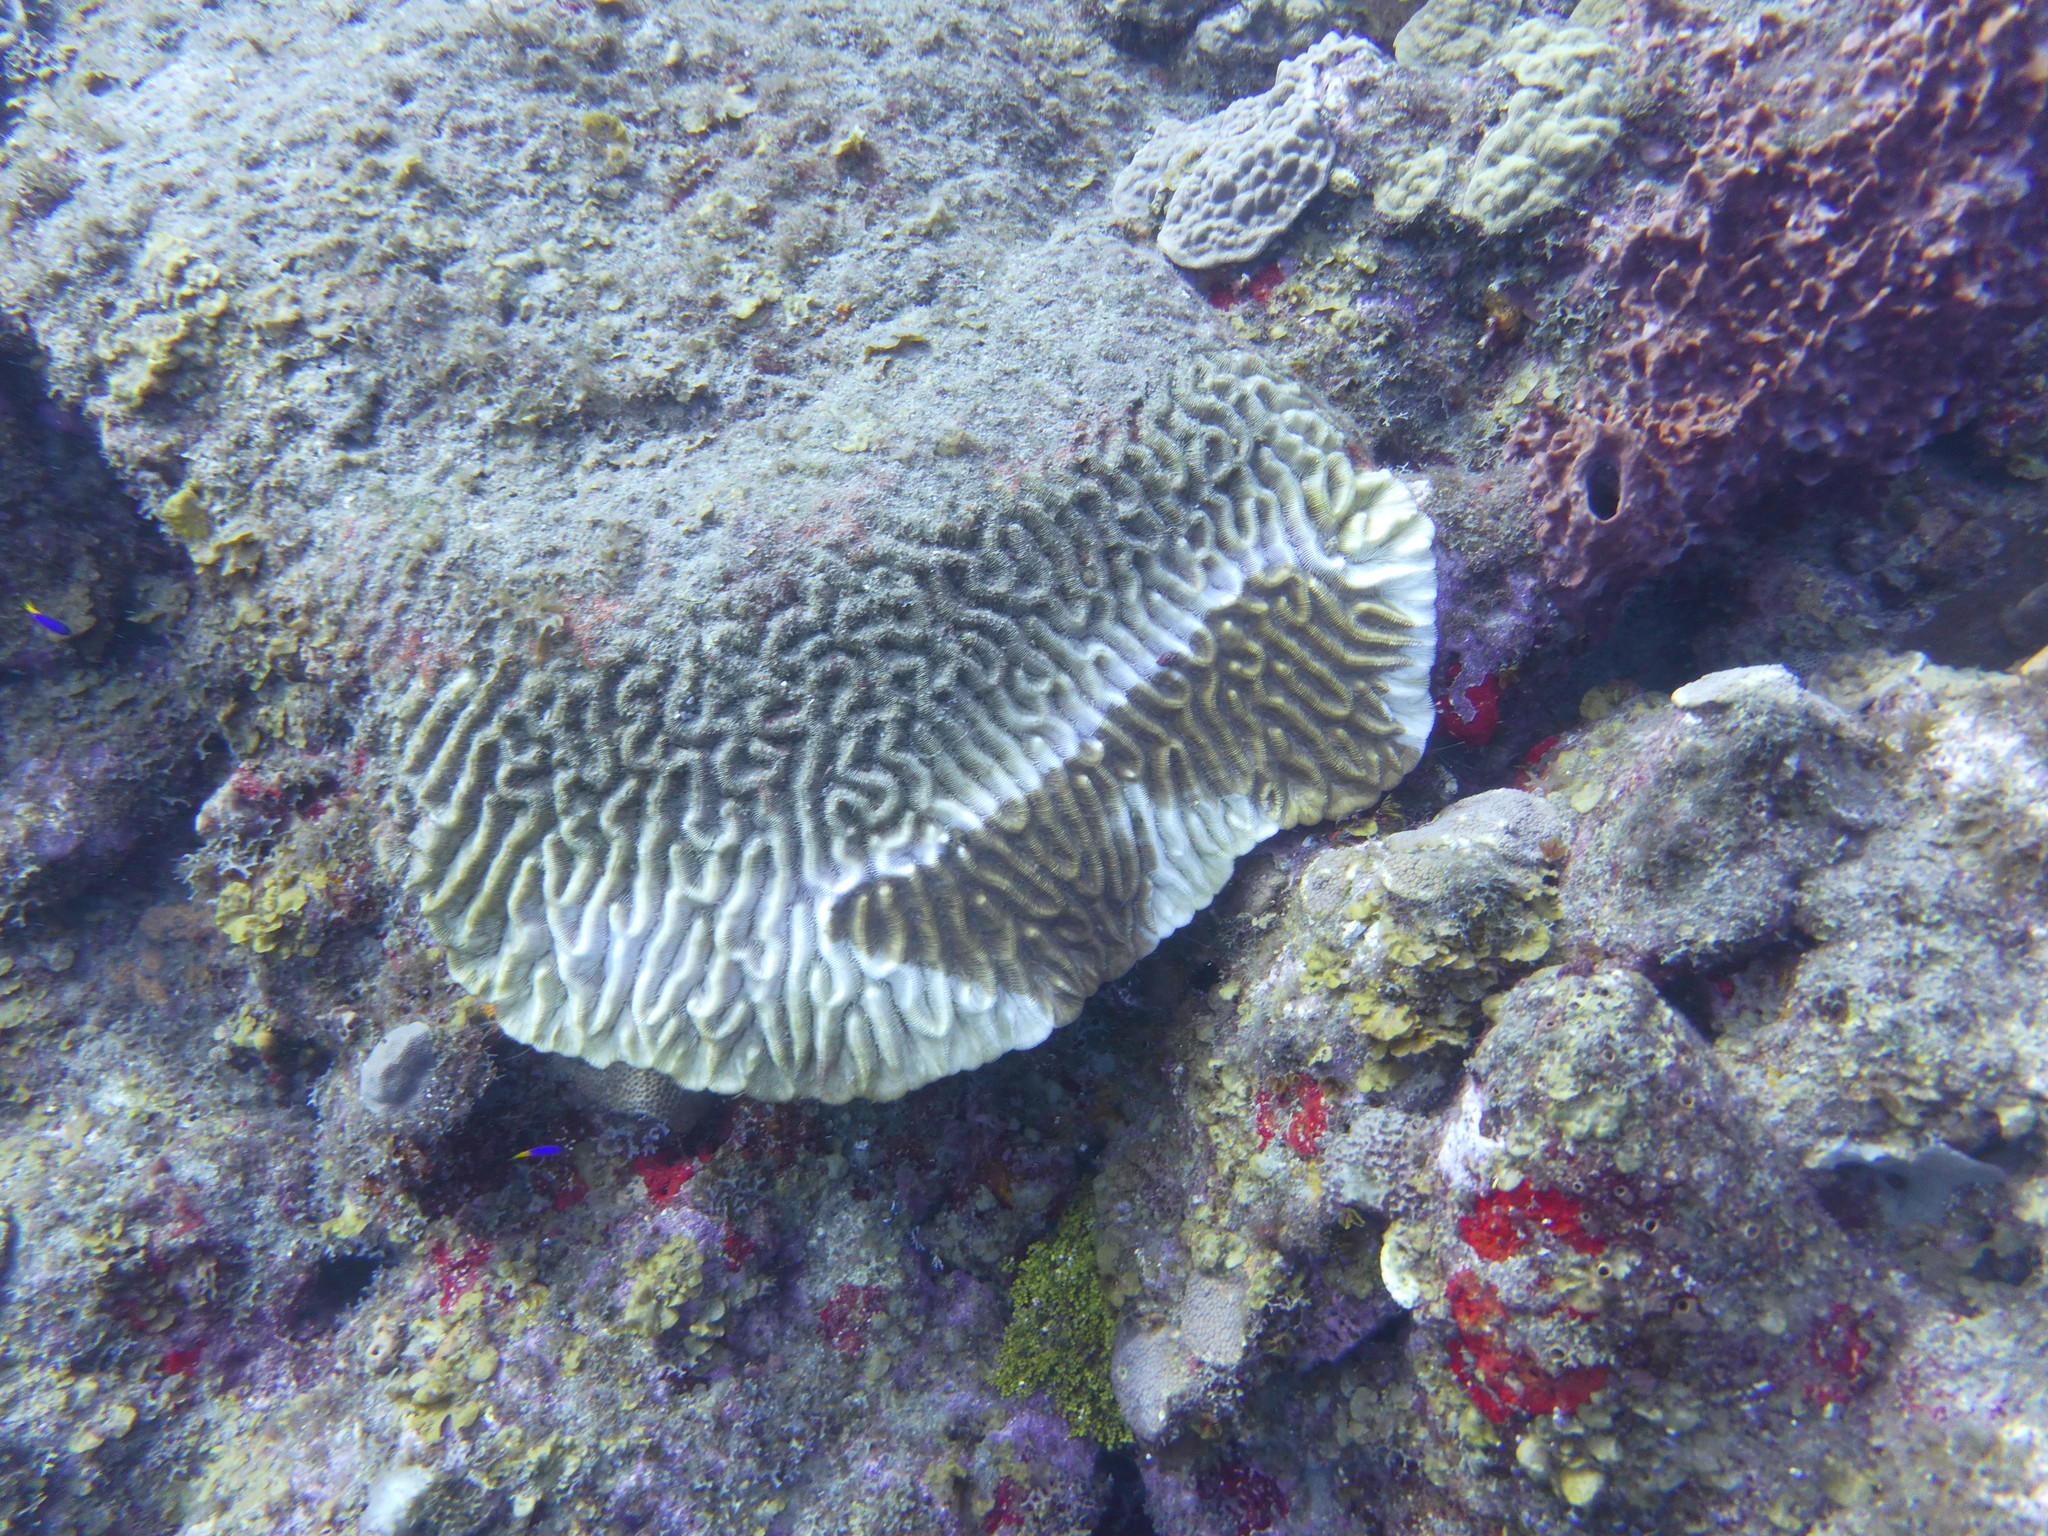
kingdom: Animalia
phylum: Cnidaria
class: Anthozoa
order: Scleractinia
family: Faviidae
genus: Colpophyllia
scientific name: Colpophyllia natans
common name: Boulder brain coral
